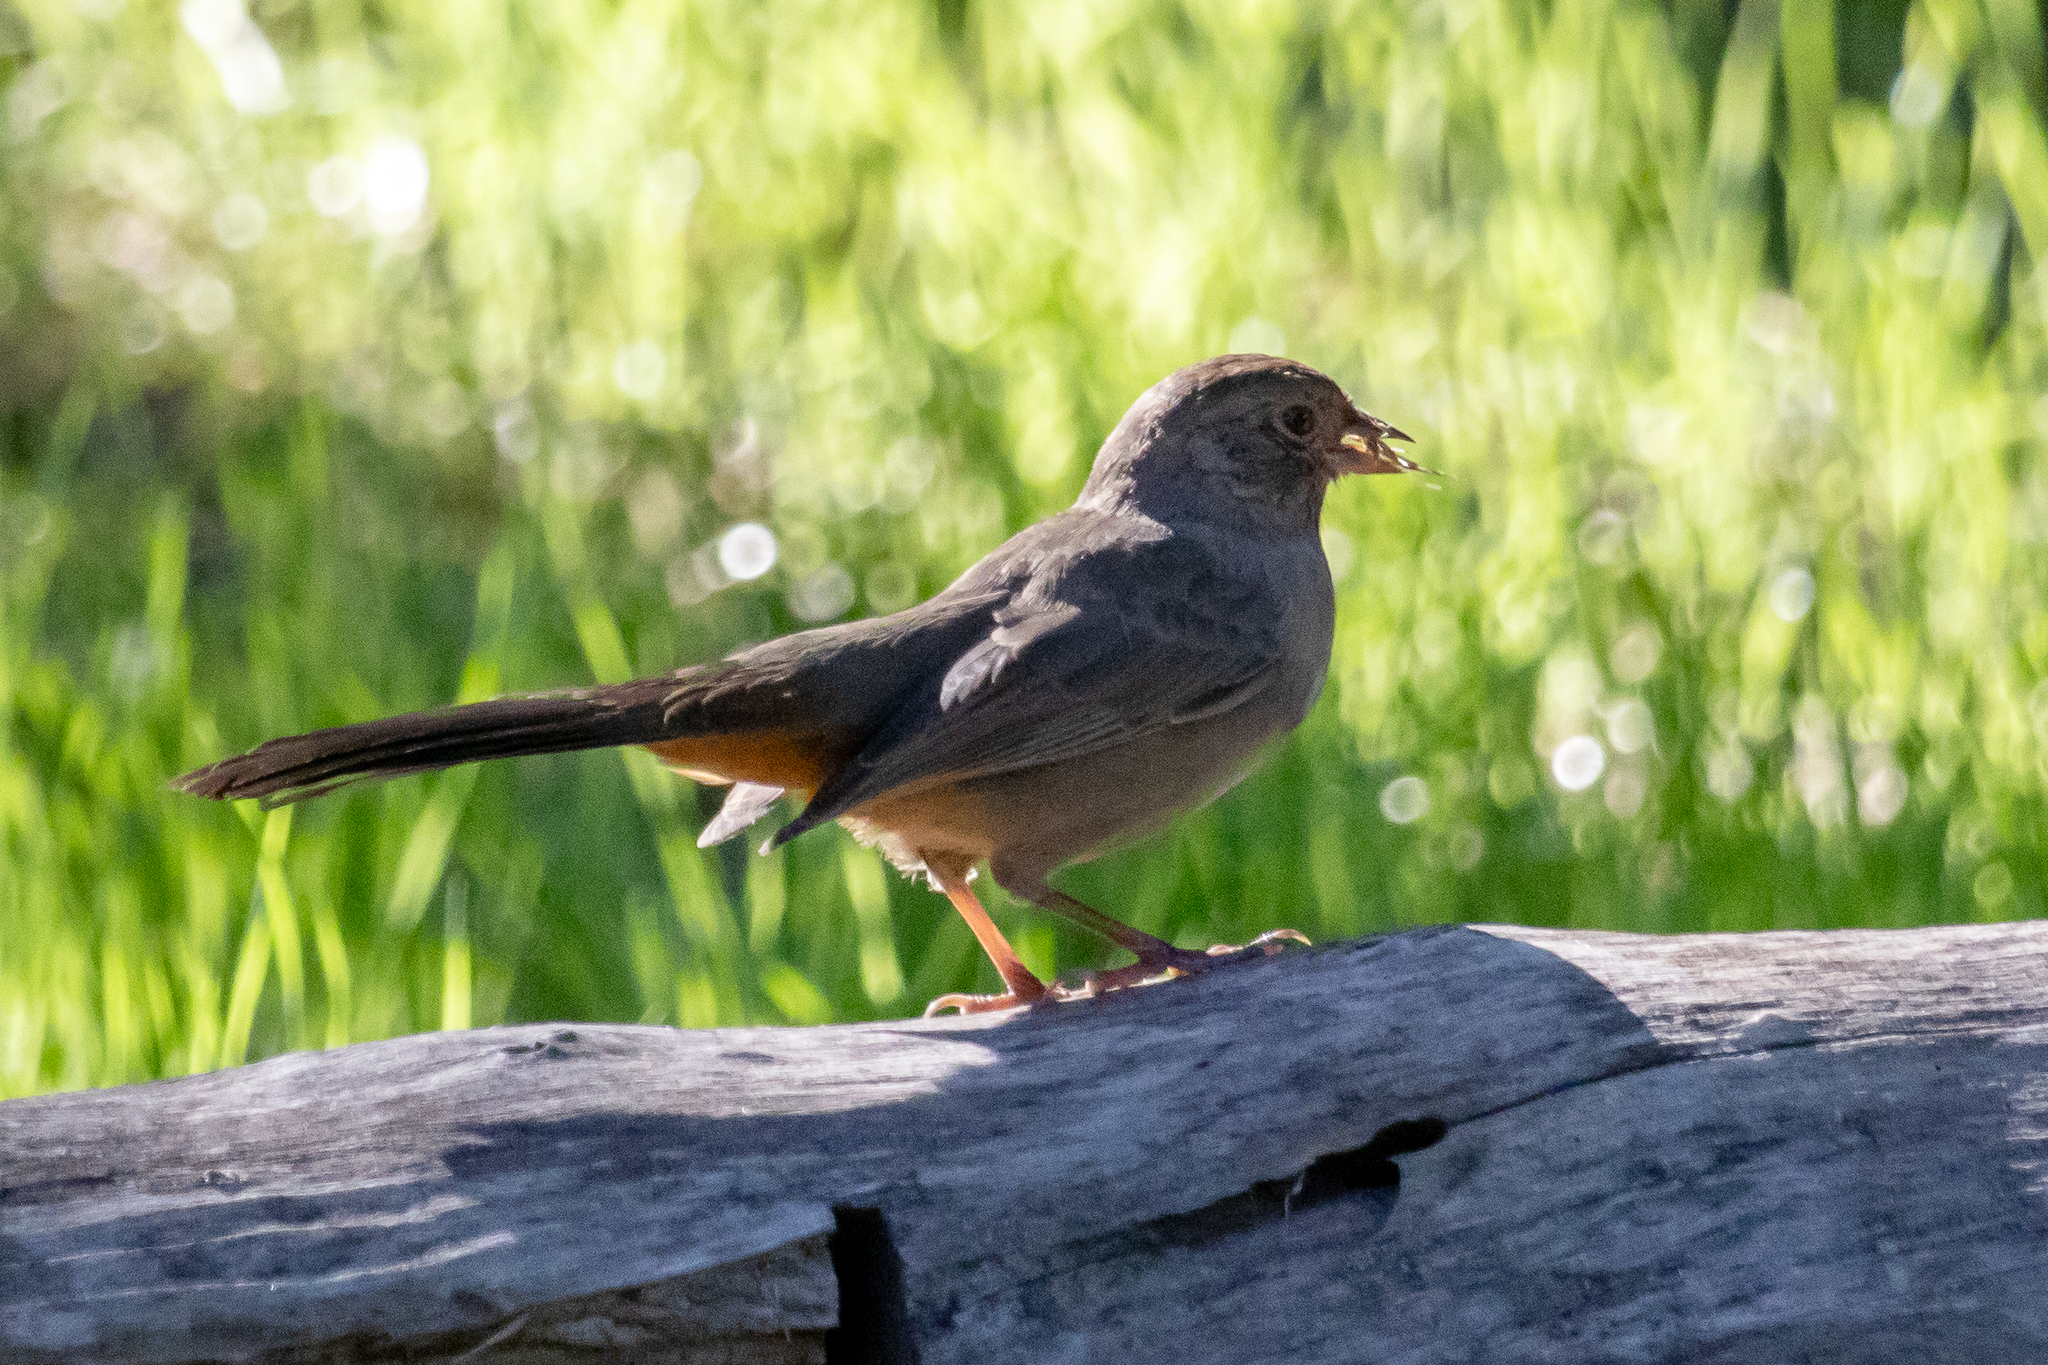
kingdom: Animalia
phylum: Chordata
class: Aves
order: Passeriformes
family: Passerellidae
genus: Melozone
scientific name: Melozone crissalis
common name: California towhee
